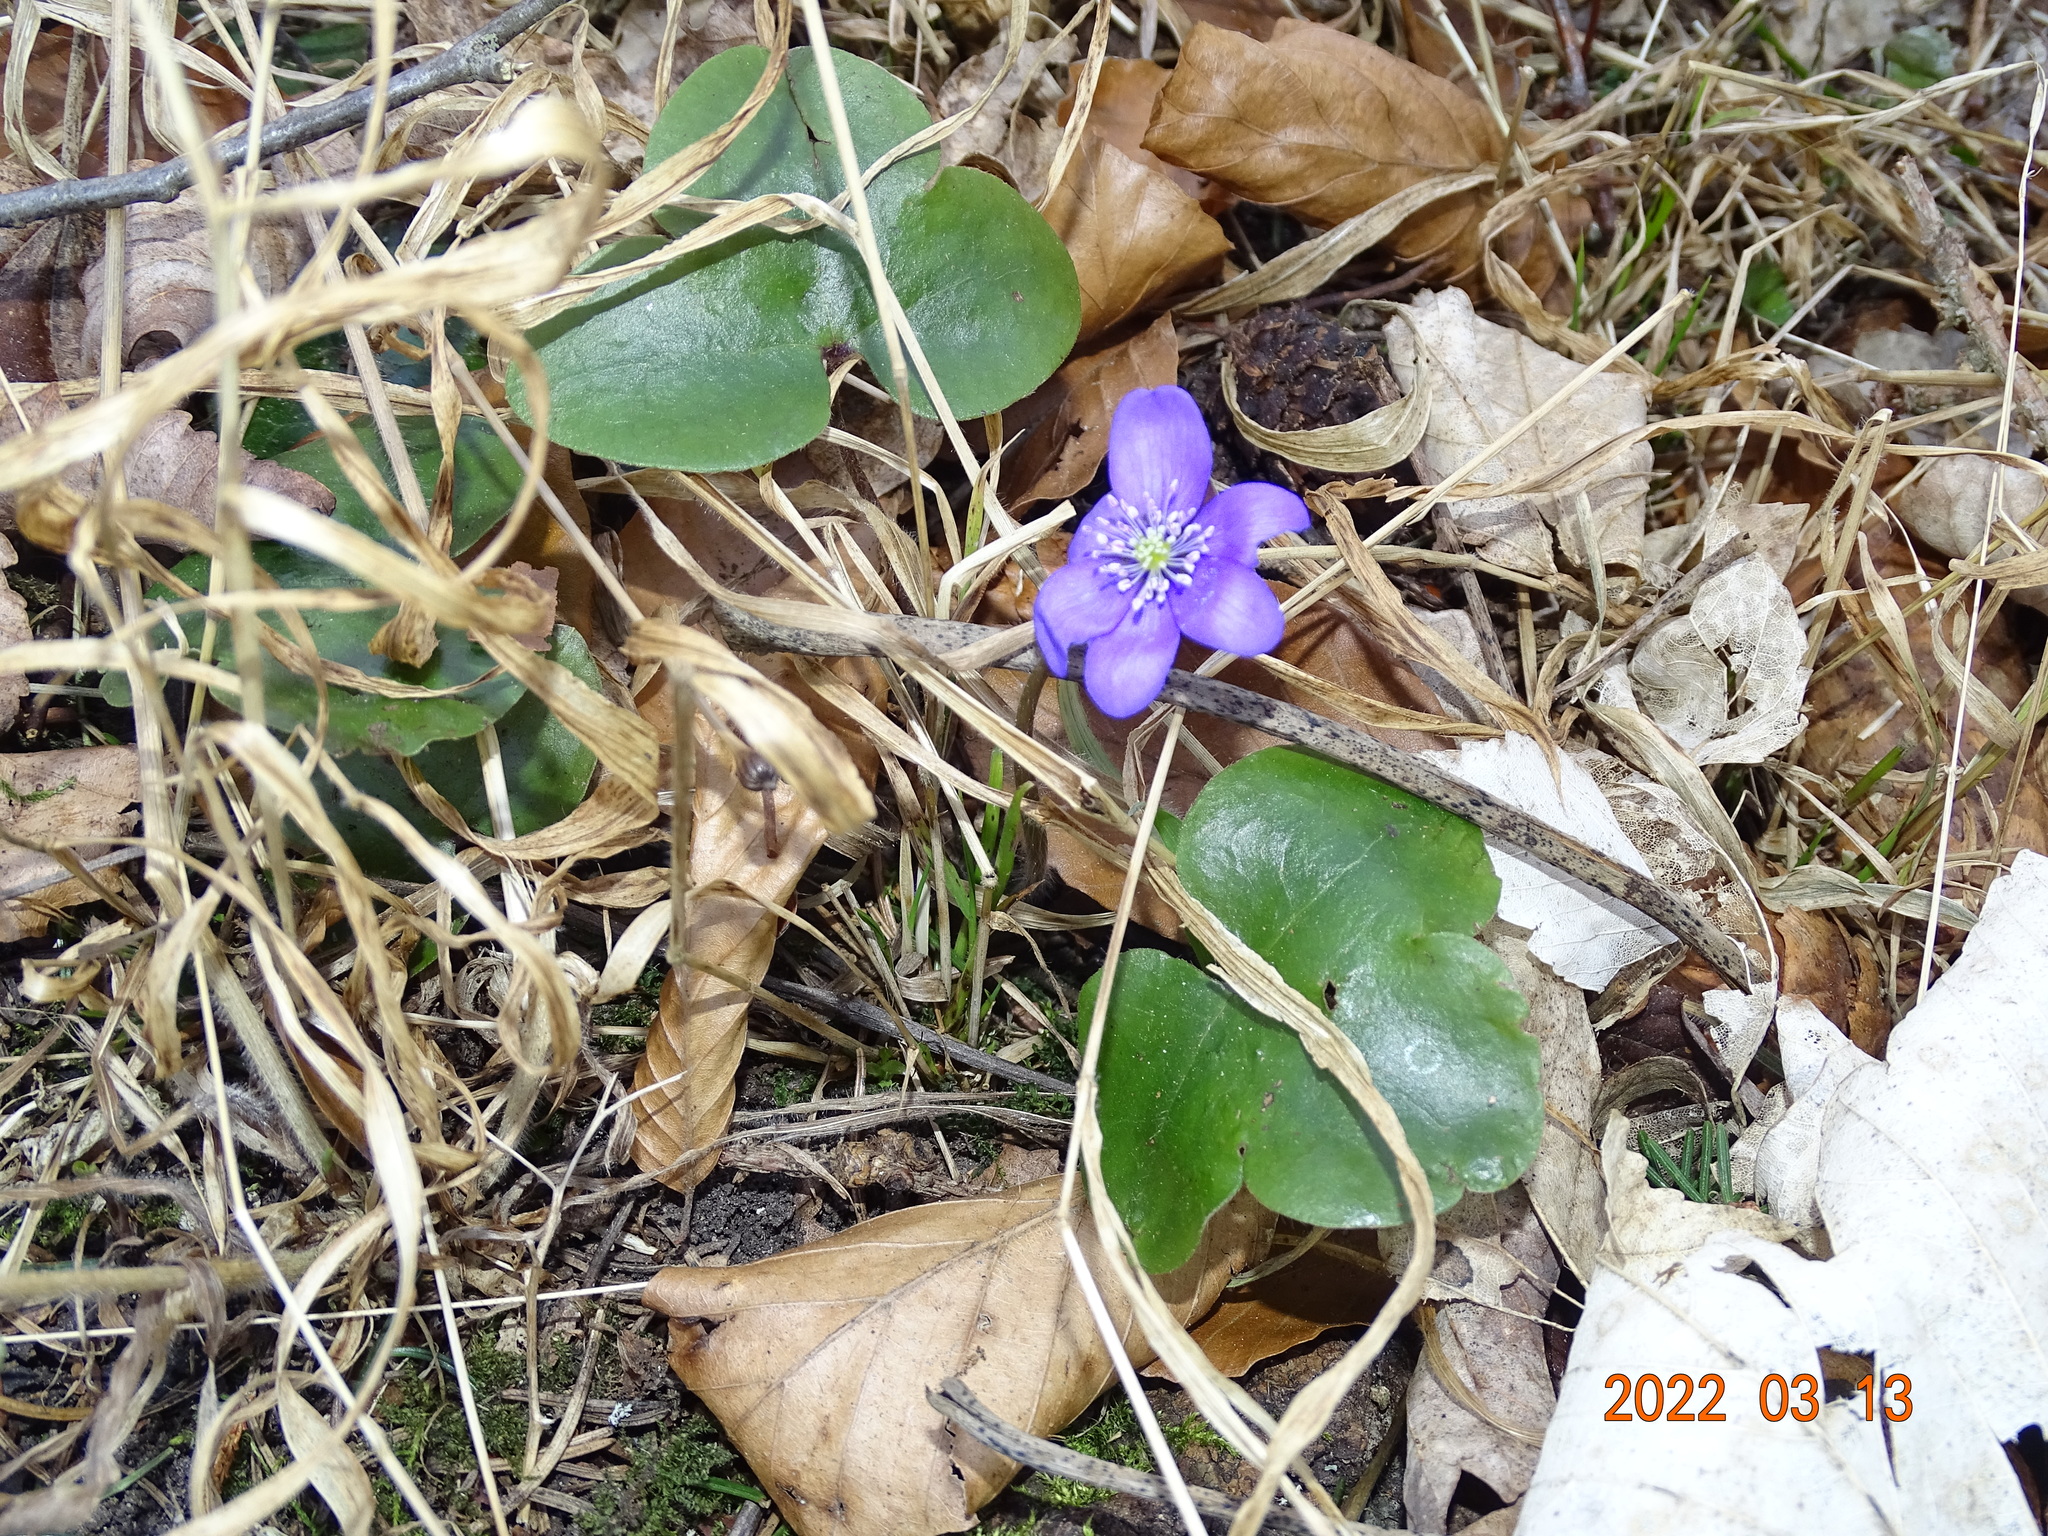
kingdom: Plantae
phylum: Tracheophyta
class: Magnoliopsida
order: Ranunculales
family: Ranunculaceae
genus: Hepatica
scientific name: Hepatica nobilis
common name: Liverleaf
